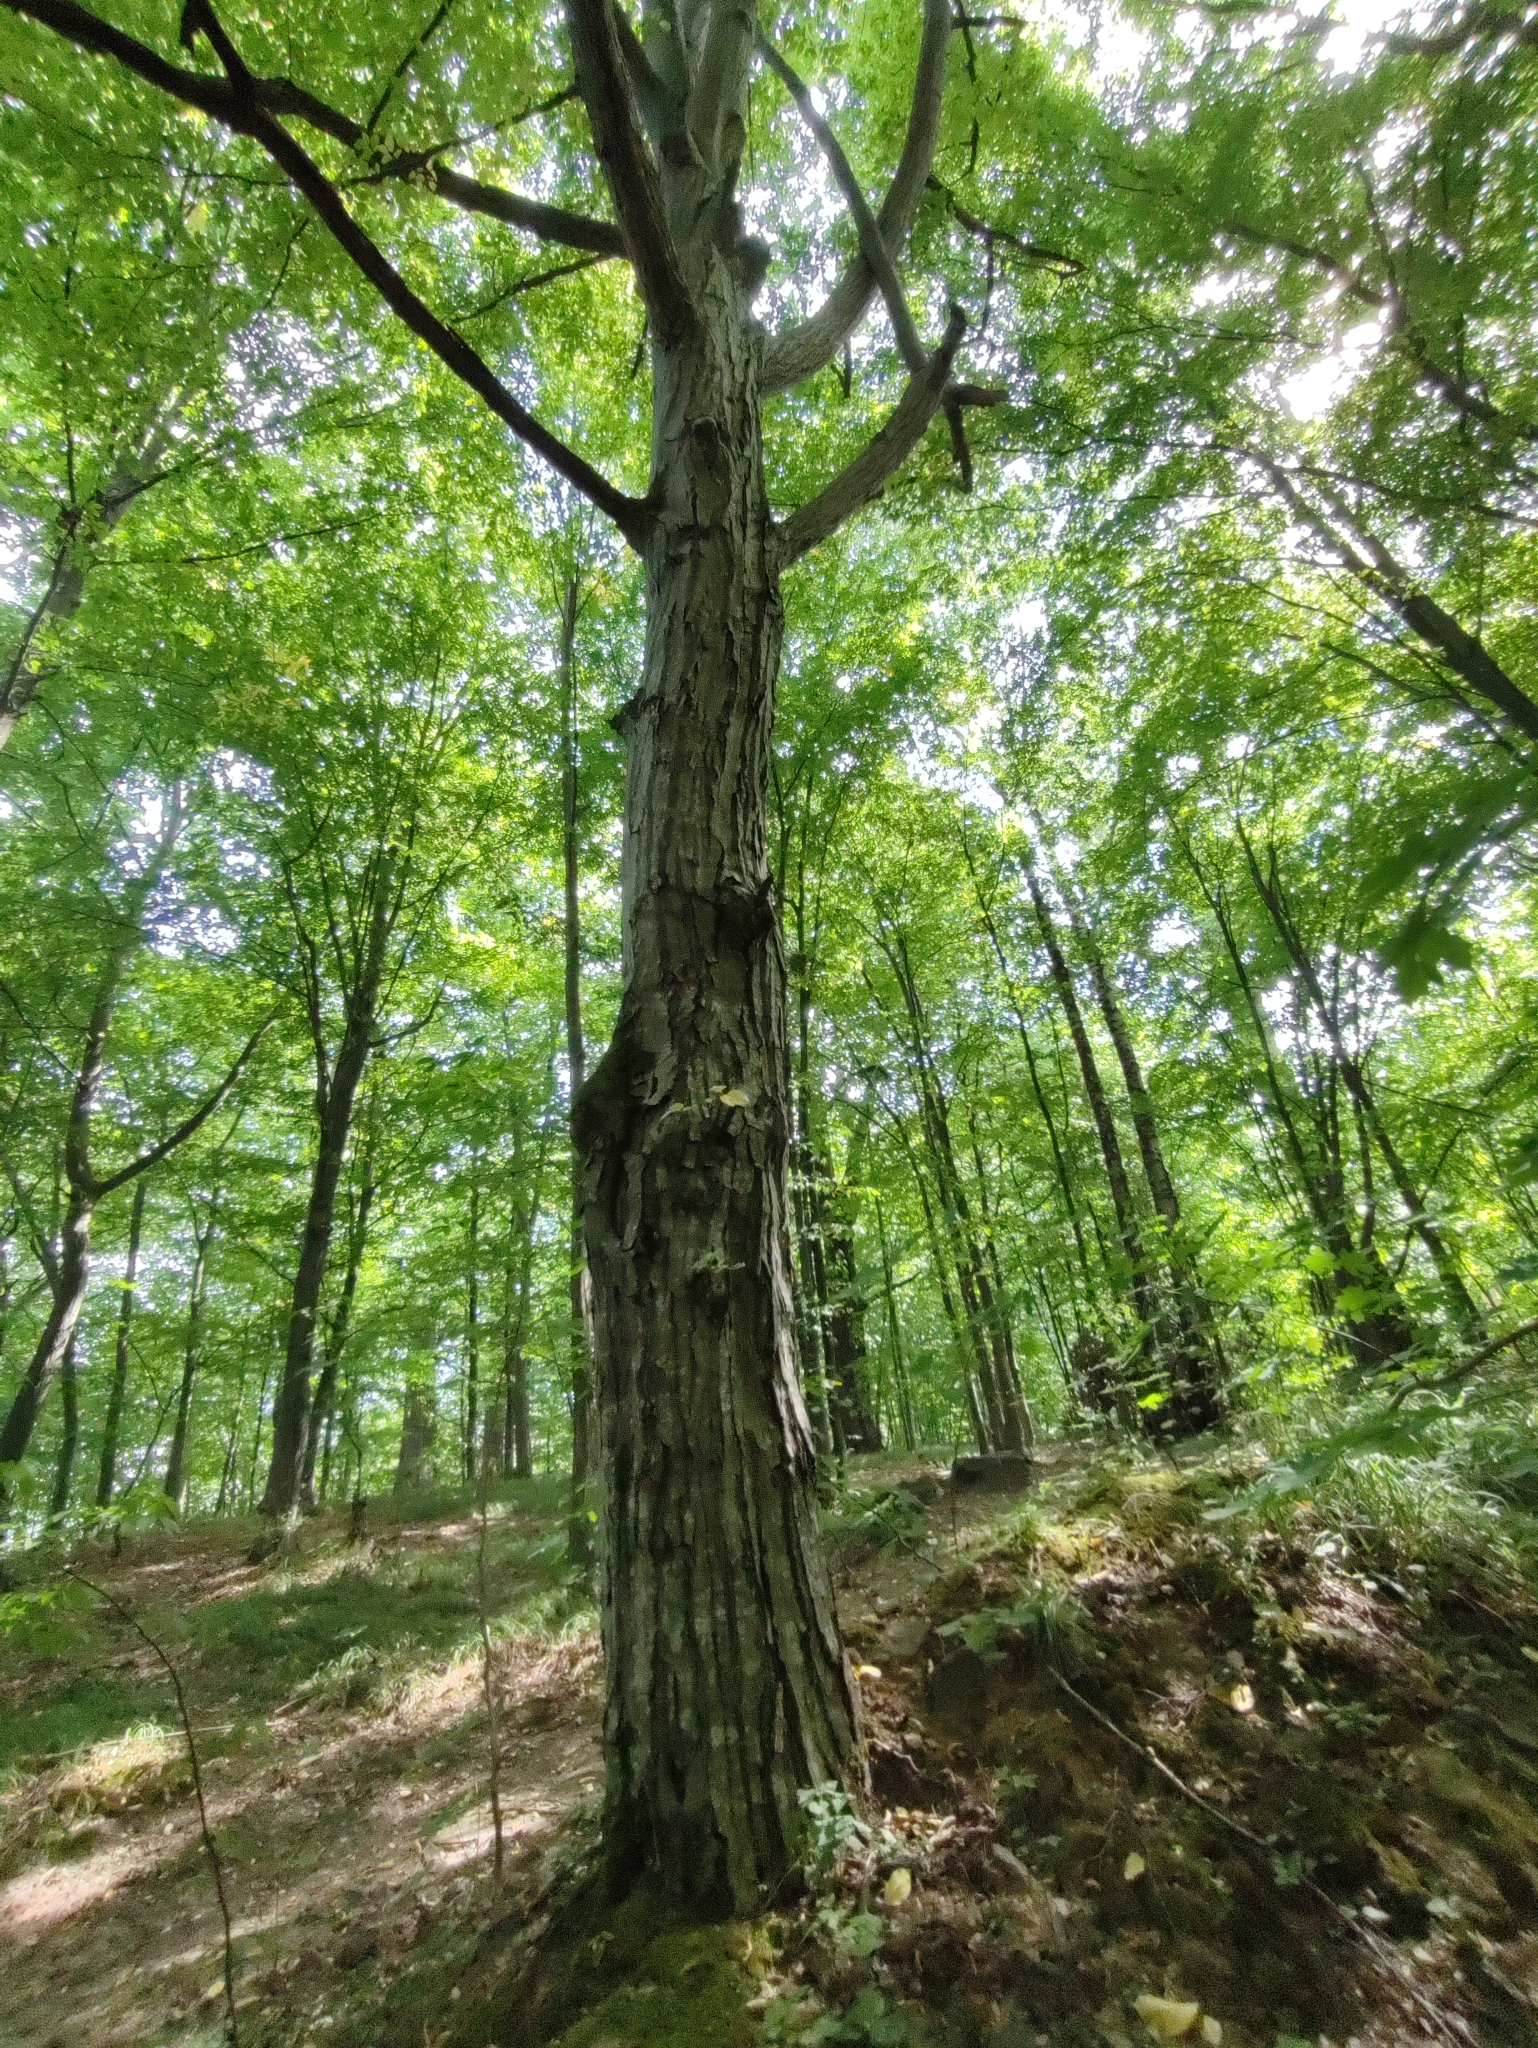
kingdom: Plantae
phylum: Tracheophyta
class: Magnoliopsida
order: Fagales
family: Betulaceae
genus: Carpinus
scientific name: Carpinus betulus
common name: Hornbeam
